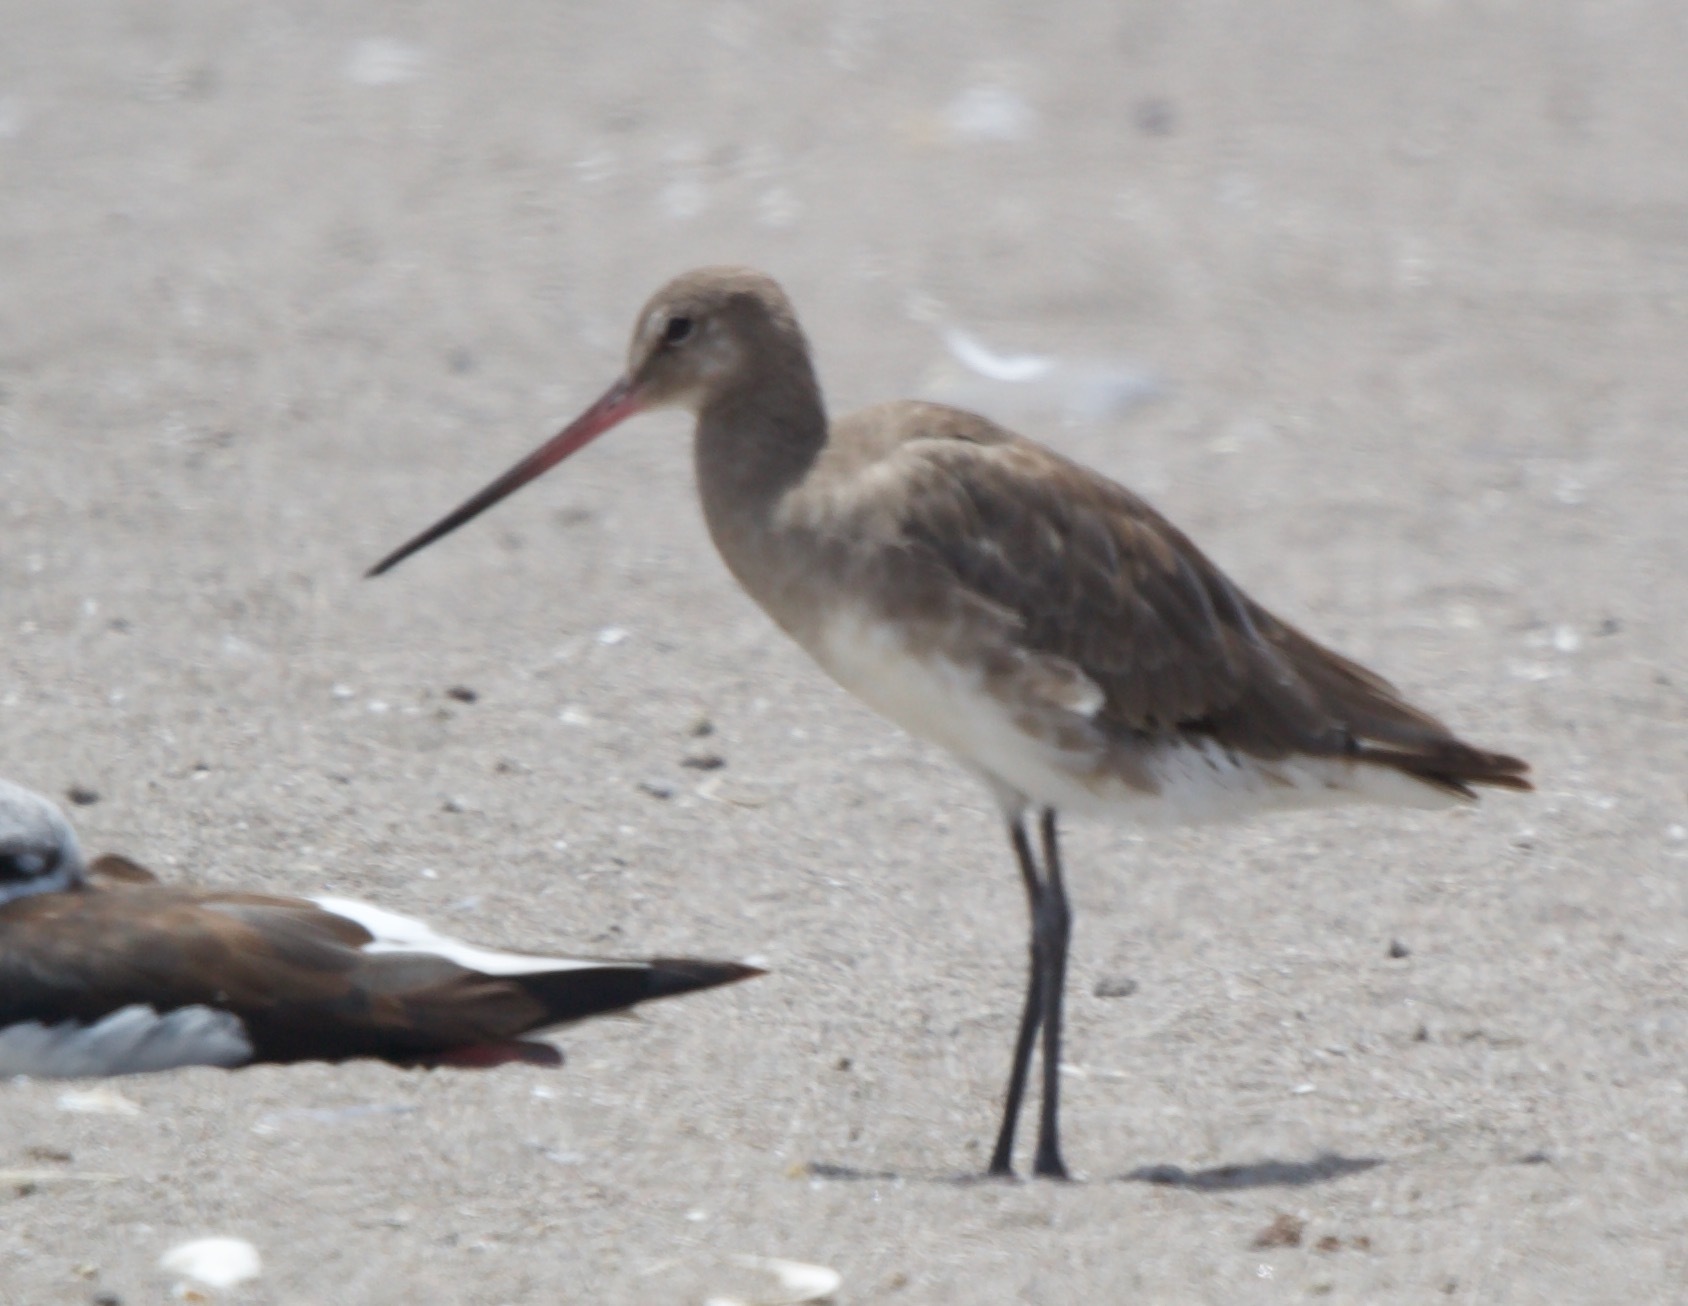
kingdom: Animalia
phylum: Chordata
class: Aves
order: Charadriiformes
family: Scolopacidae
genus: Limosa
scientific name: Limosa haemastica
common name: Hudsonian godwit
